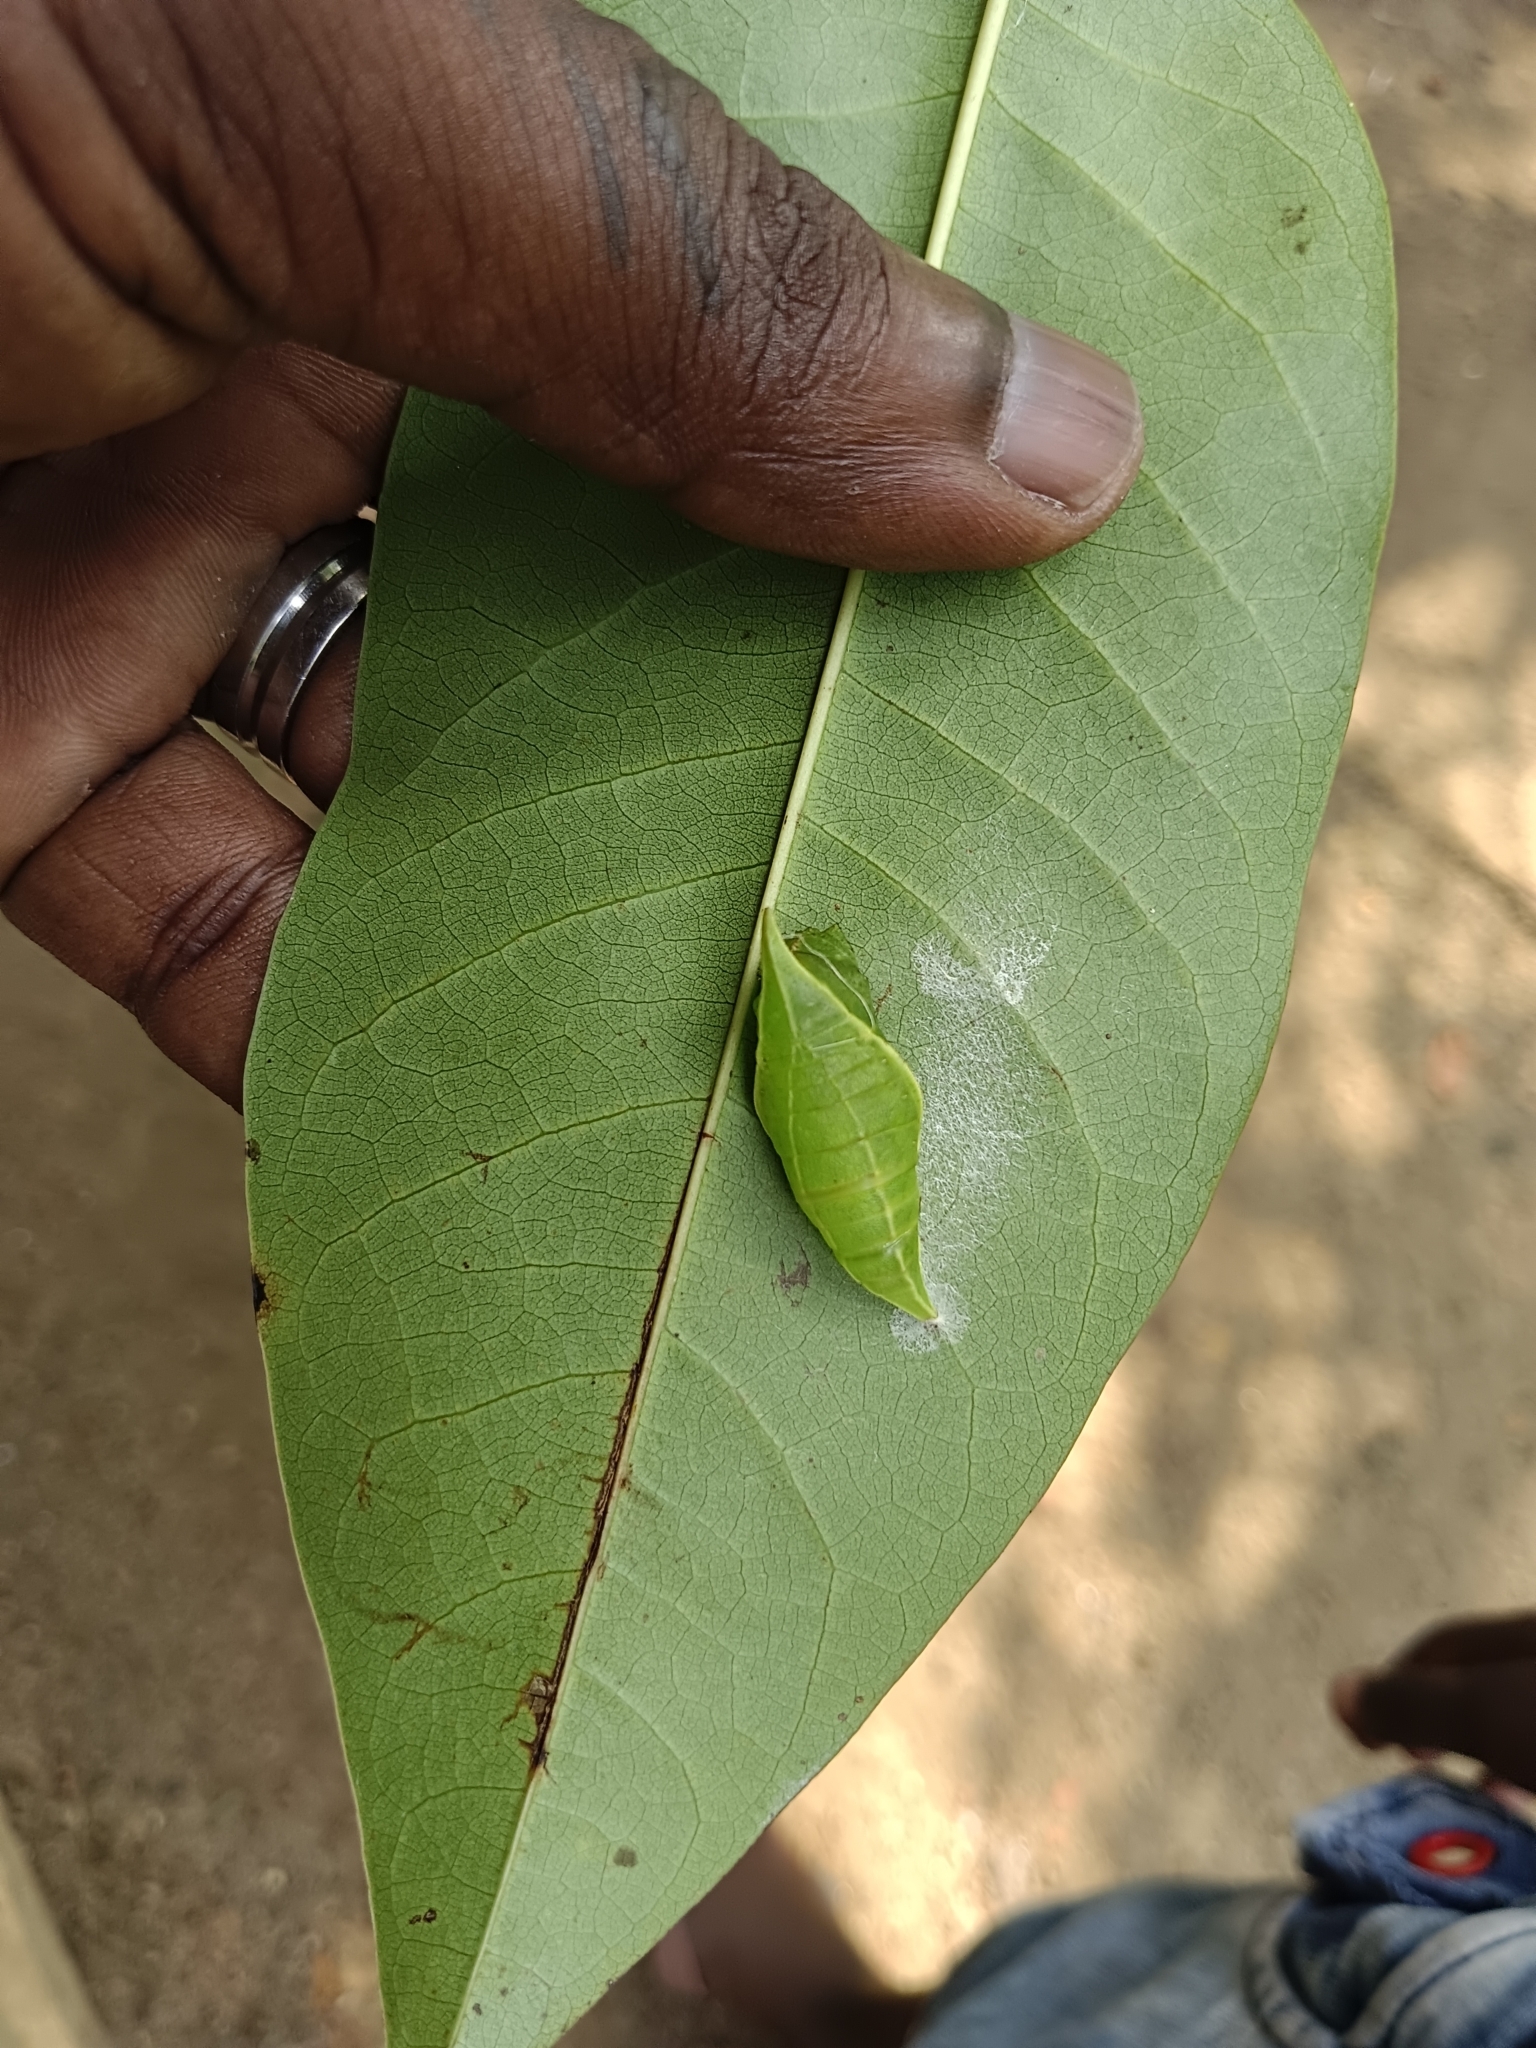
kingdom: Animalia
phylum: Arthropoda
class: Insecta
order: Lepidoptera
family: Papilionidae
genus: Graphium
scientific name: Graphium agamemnon
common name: Tailed jay
